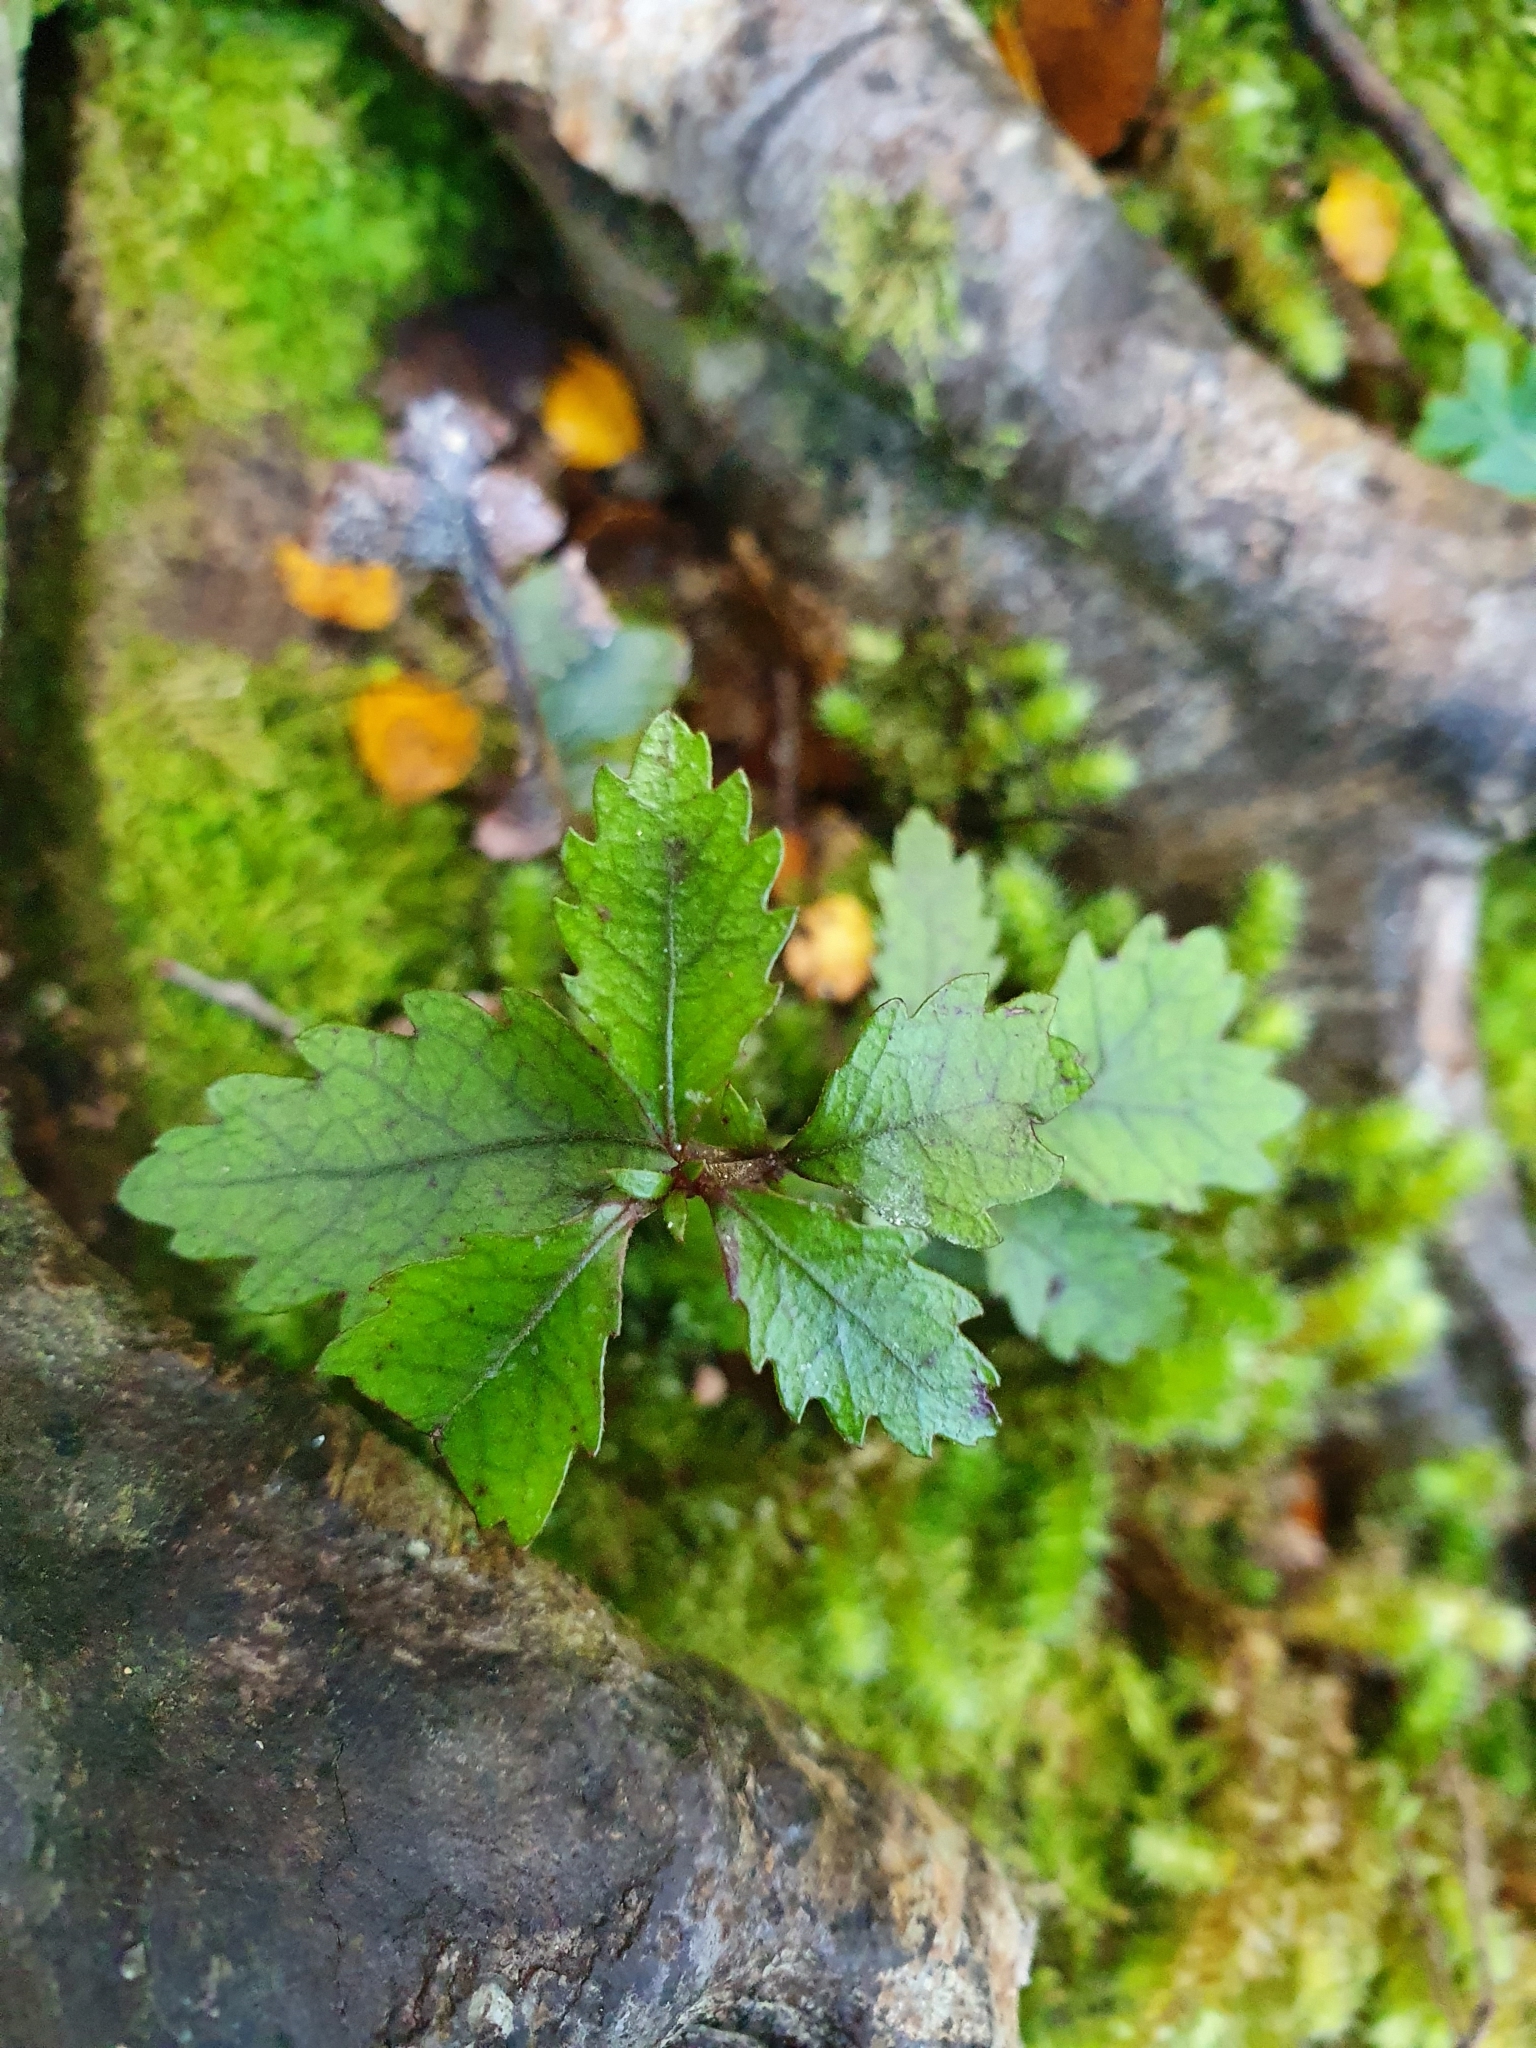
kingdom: Plantae
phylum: Tracheophyta
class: Magnoliopsida
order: Oxalidales
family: Cunoniaceae
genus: Pterophylla
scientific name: Pterophylla racemosa
